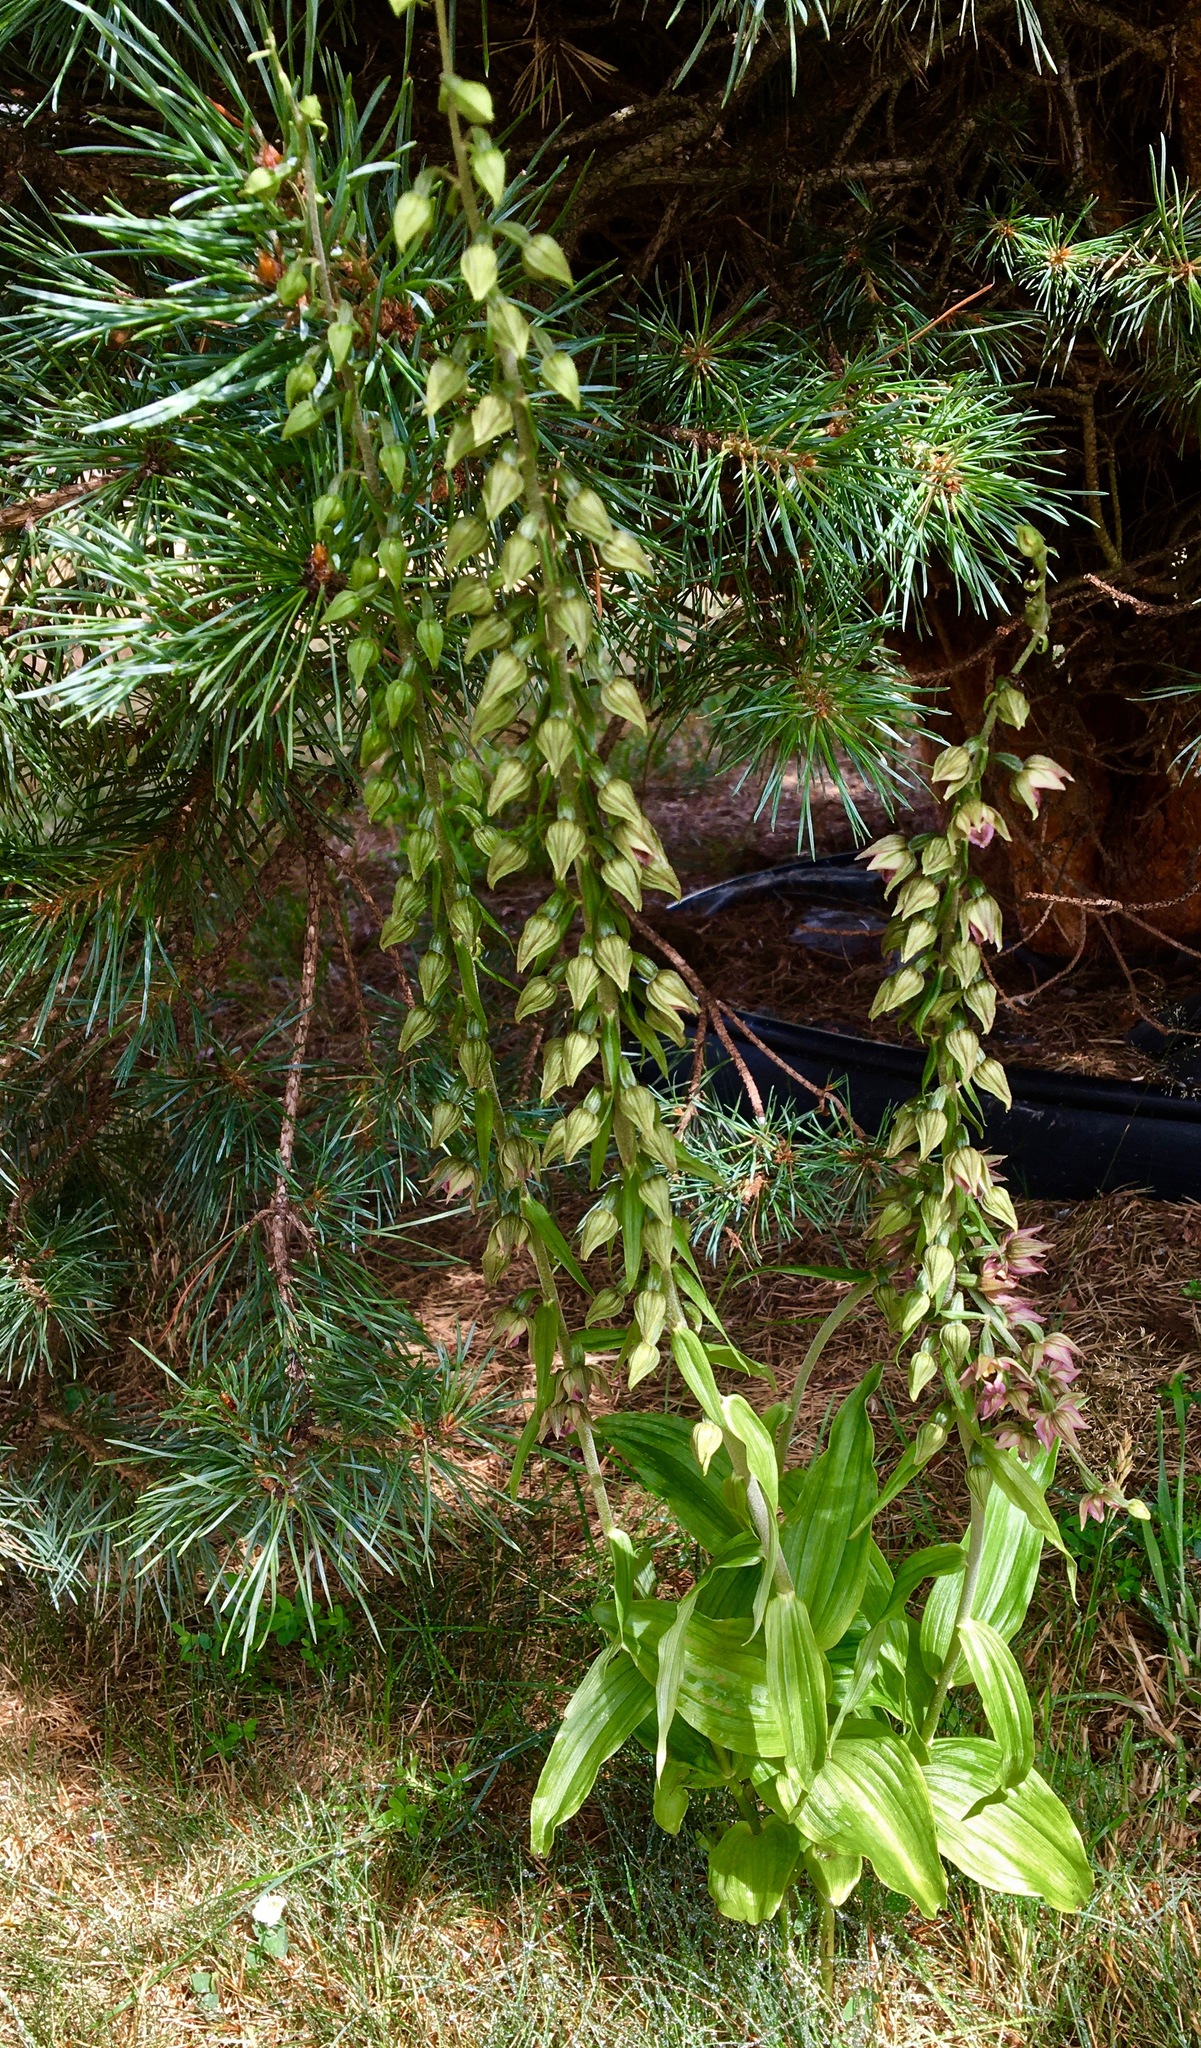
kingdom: Plantae
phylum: Tracheophyta
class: Liliopsida
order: Asparagales
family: Orchidaceae
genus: Epipactis
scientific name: Epipactis helleborine
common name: Broad-leaved helleborine
